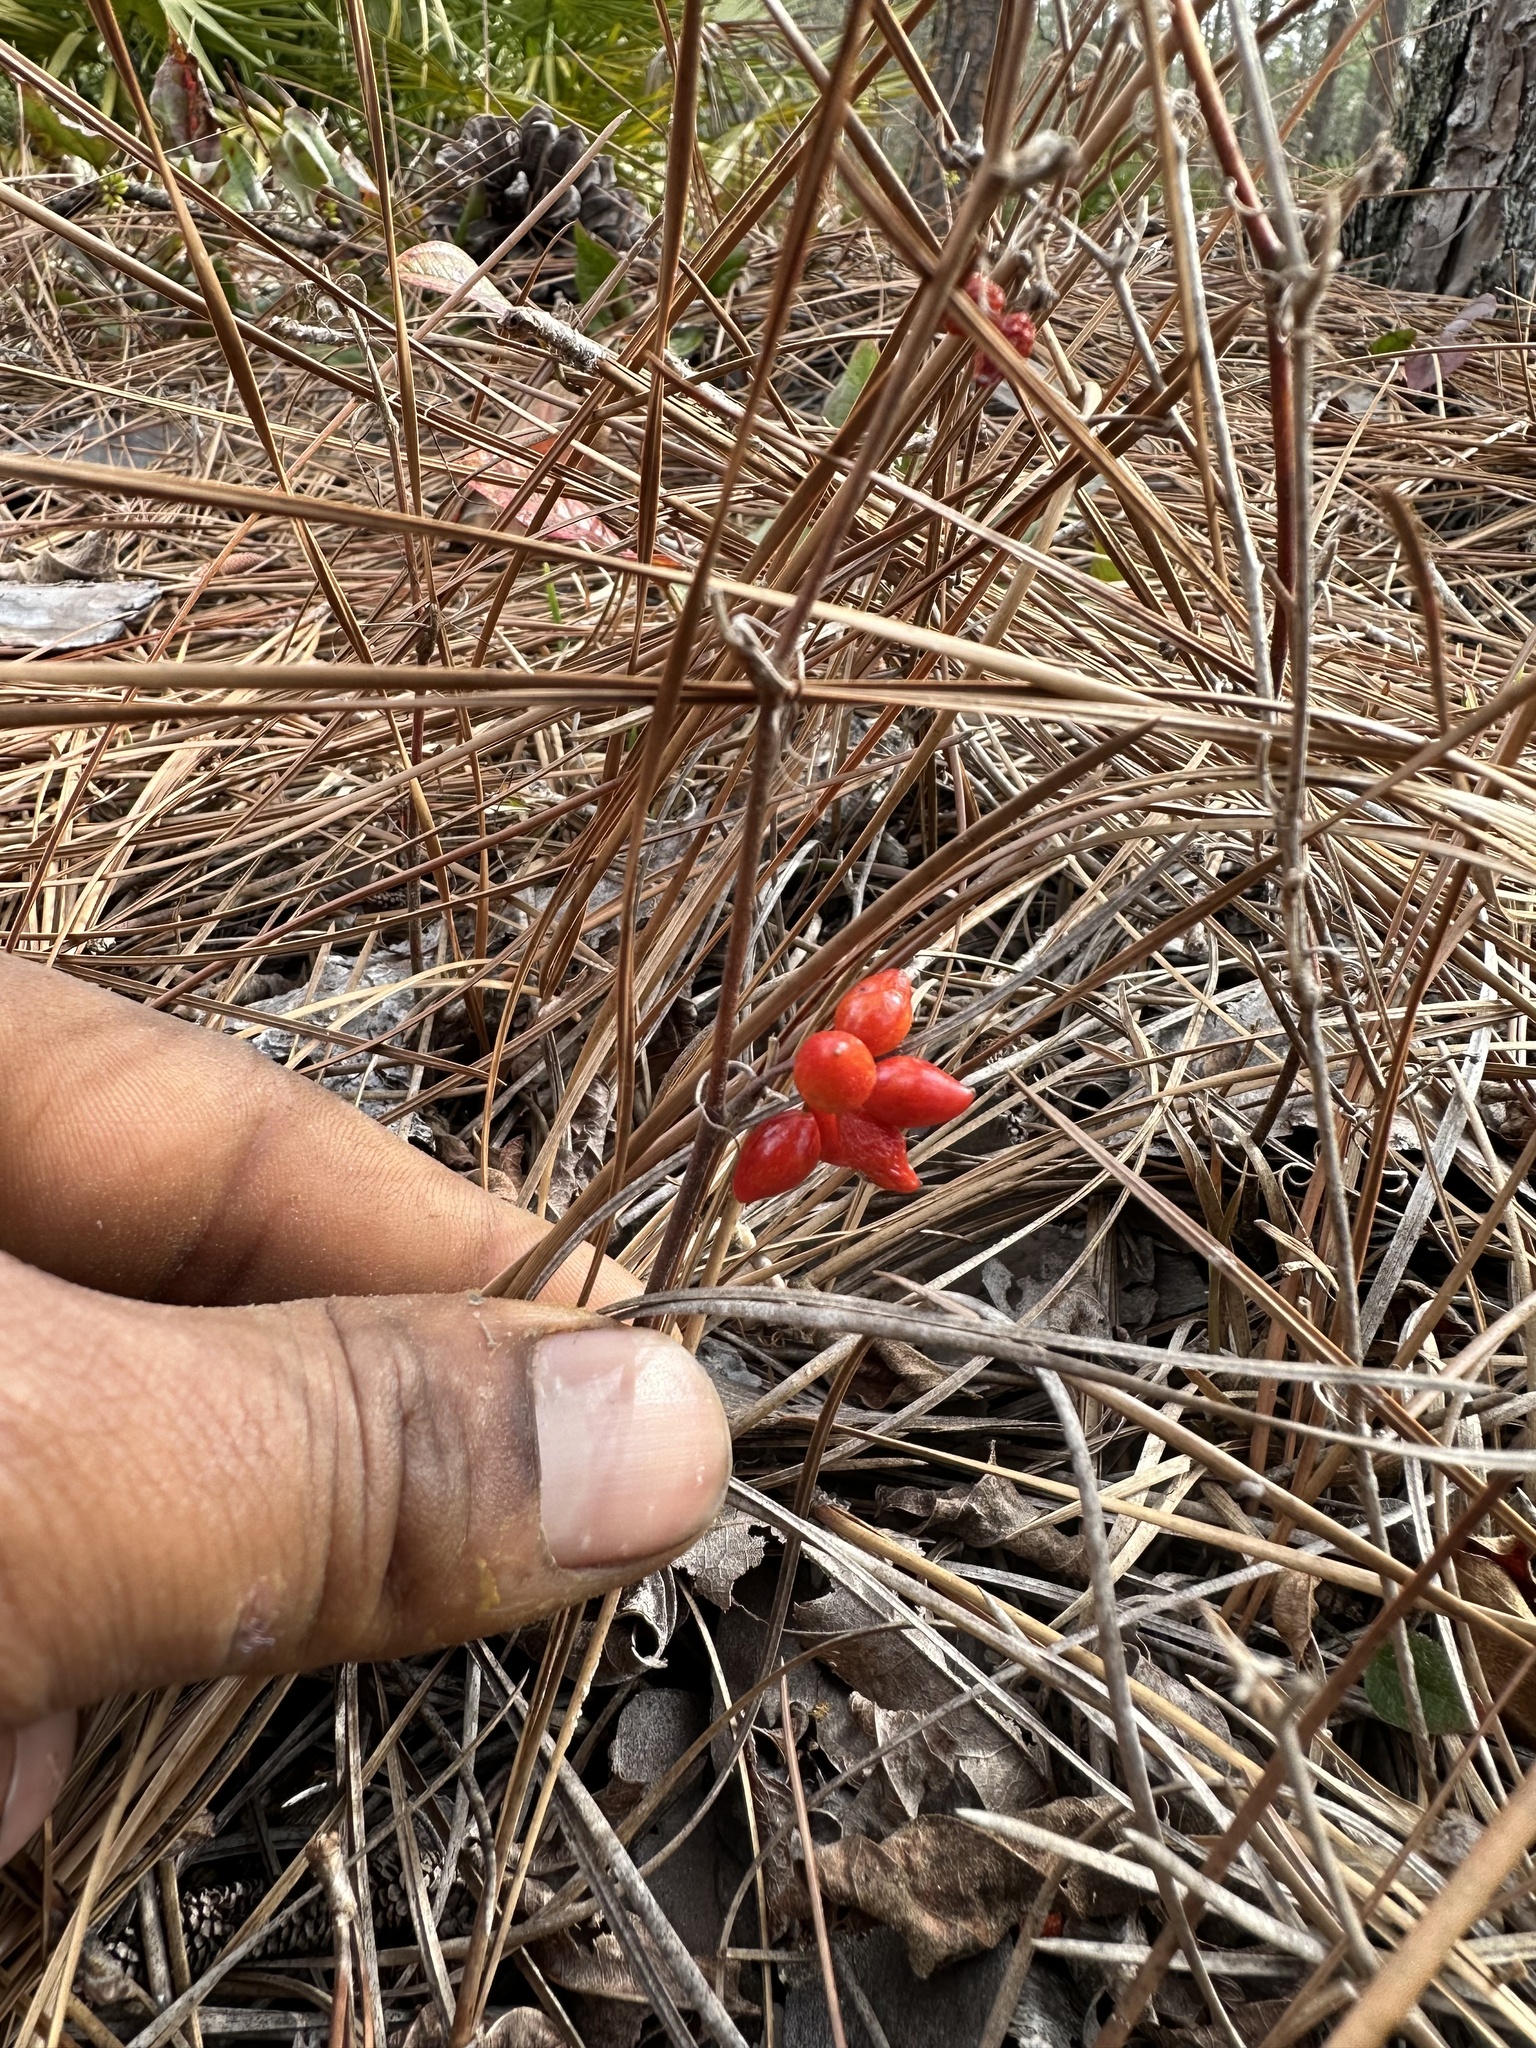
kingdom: Plantae
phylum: Tracheophyta
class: Liliopsida
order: Liliales
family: Smilacaceae
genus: Smilax
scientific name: Smilax pumila
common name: Sarsaparilla-vine
